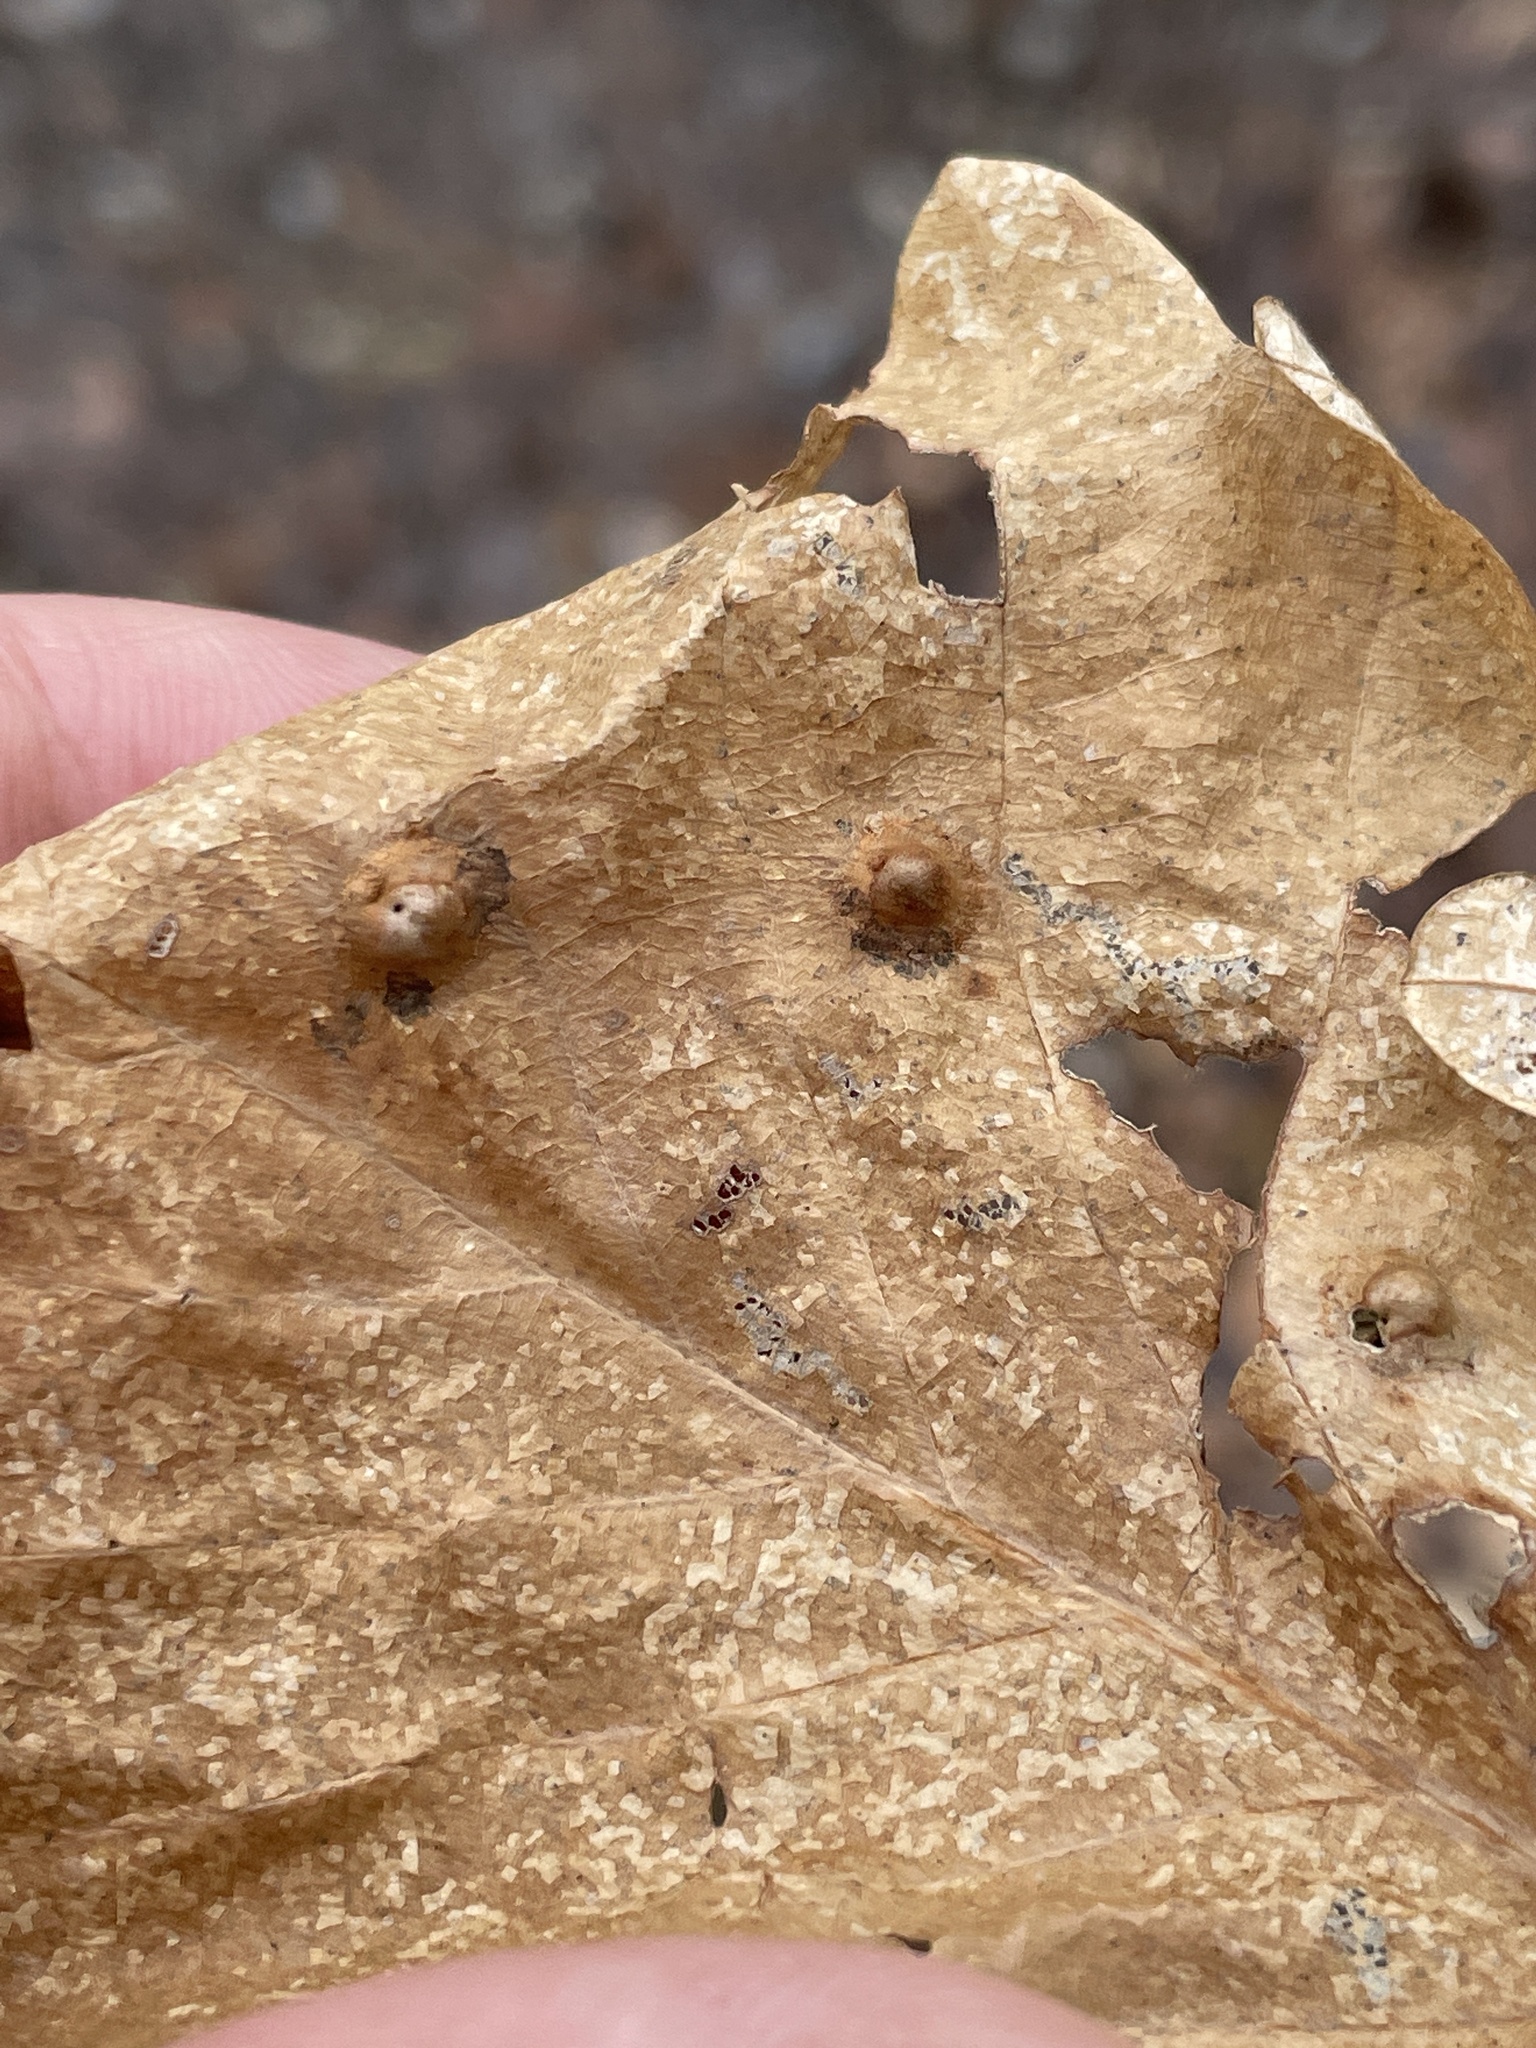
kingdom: Animalia
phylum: Arthropoda
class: Insecta
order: Hymenoptera
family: Cynipidae
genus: Callirhytis
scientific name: Callirhytis
